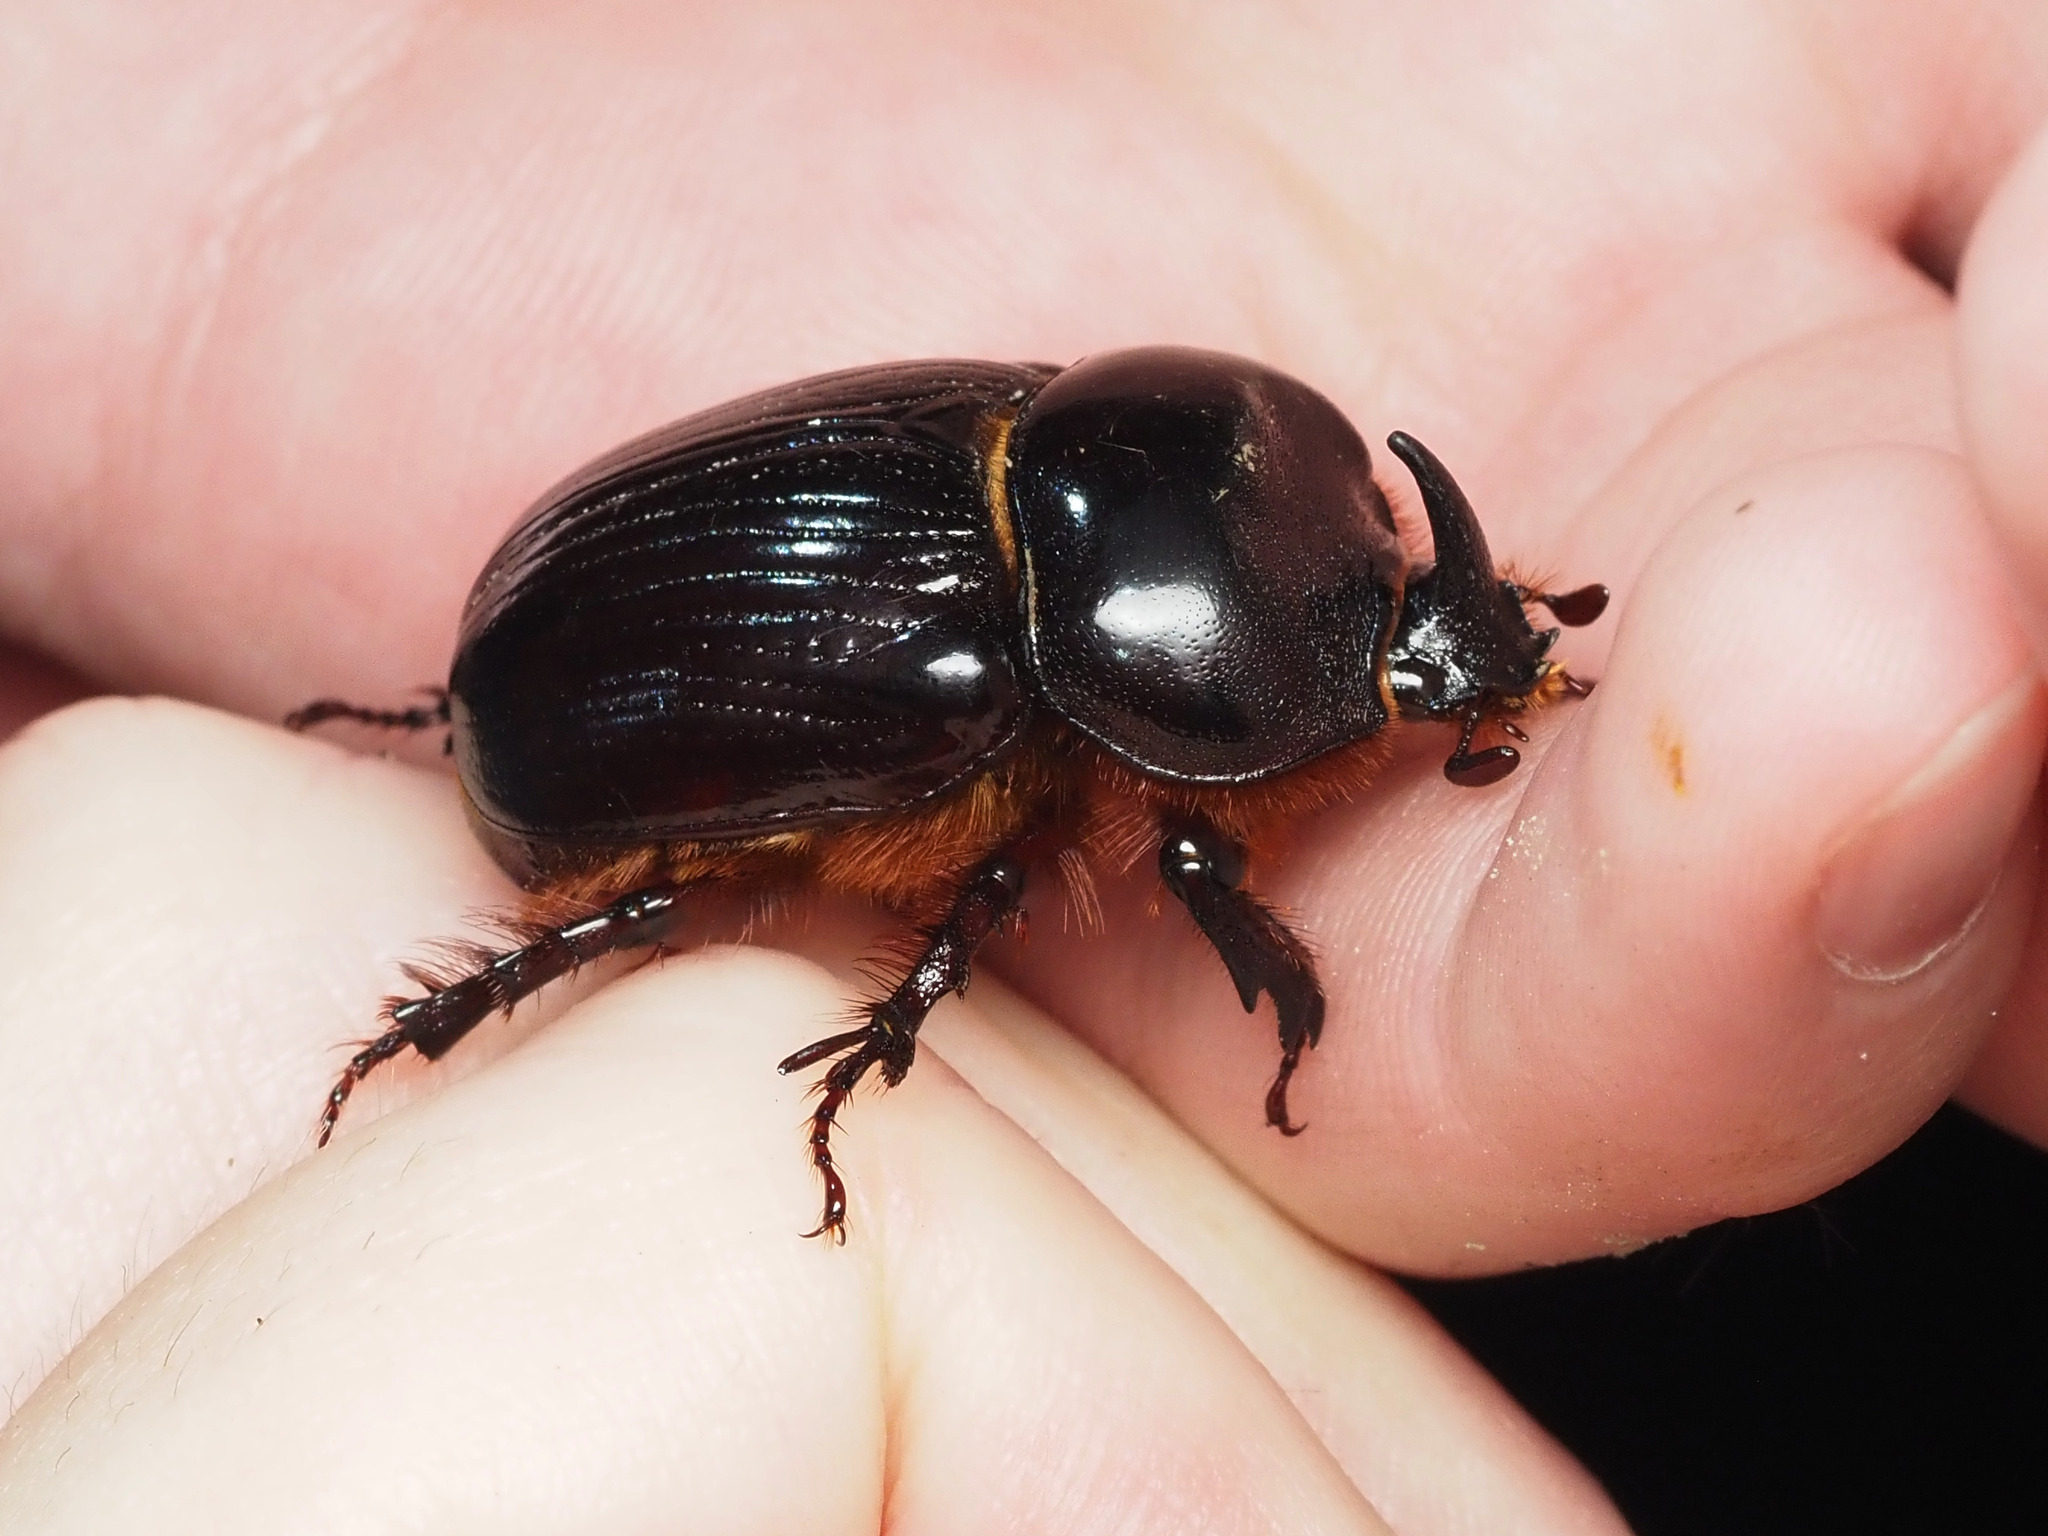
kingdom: Animalia
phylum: Arthropoda
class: Insecta
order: Coleoptera
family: Scarabaeidae
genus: Xyloryctes
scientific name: Xyloryctes jamaicensis
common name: Eastern rhinoceros beetle
